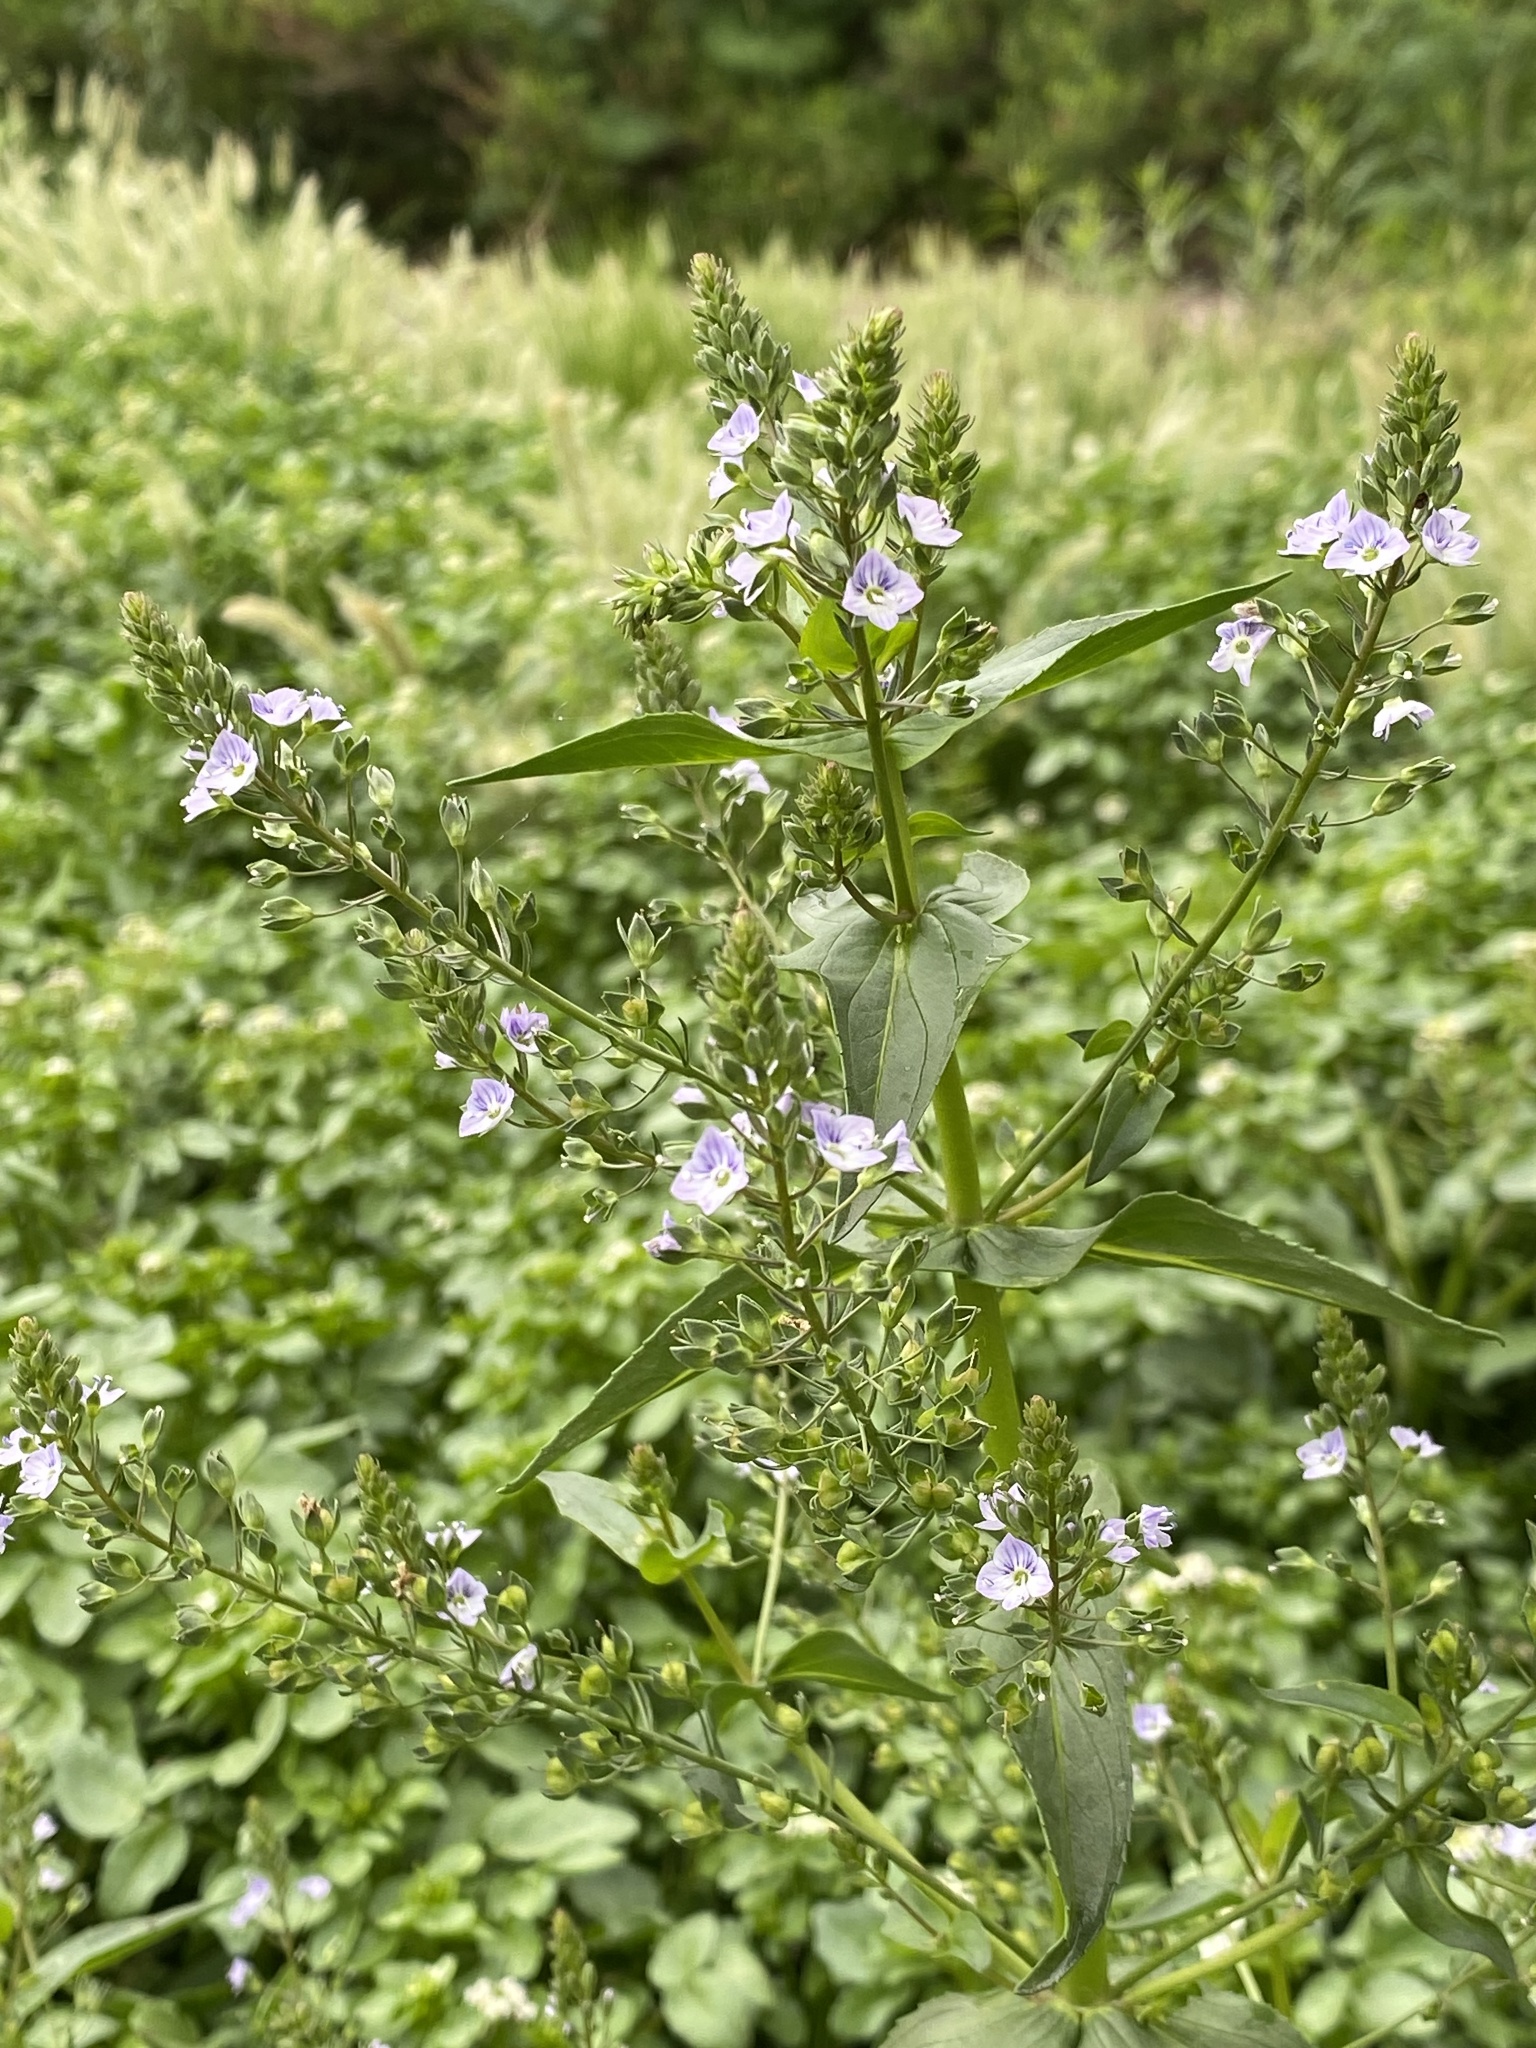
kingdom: Plantae
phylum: Tracheophyta
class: Magnoliopsida
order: Lamiales
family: Plantaginaceae
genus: Veronica
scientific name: Veronica anagallis-aquatica
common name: Water speedwell
